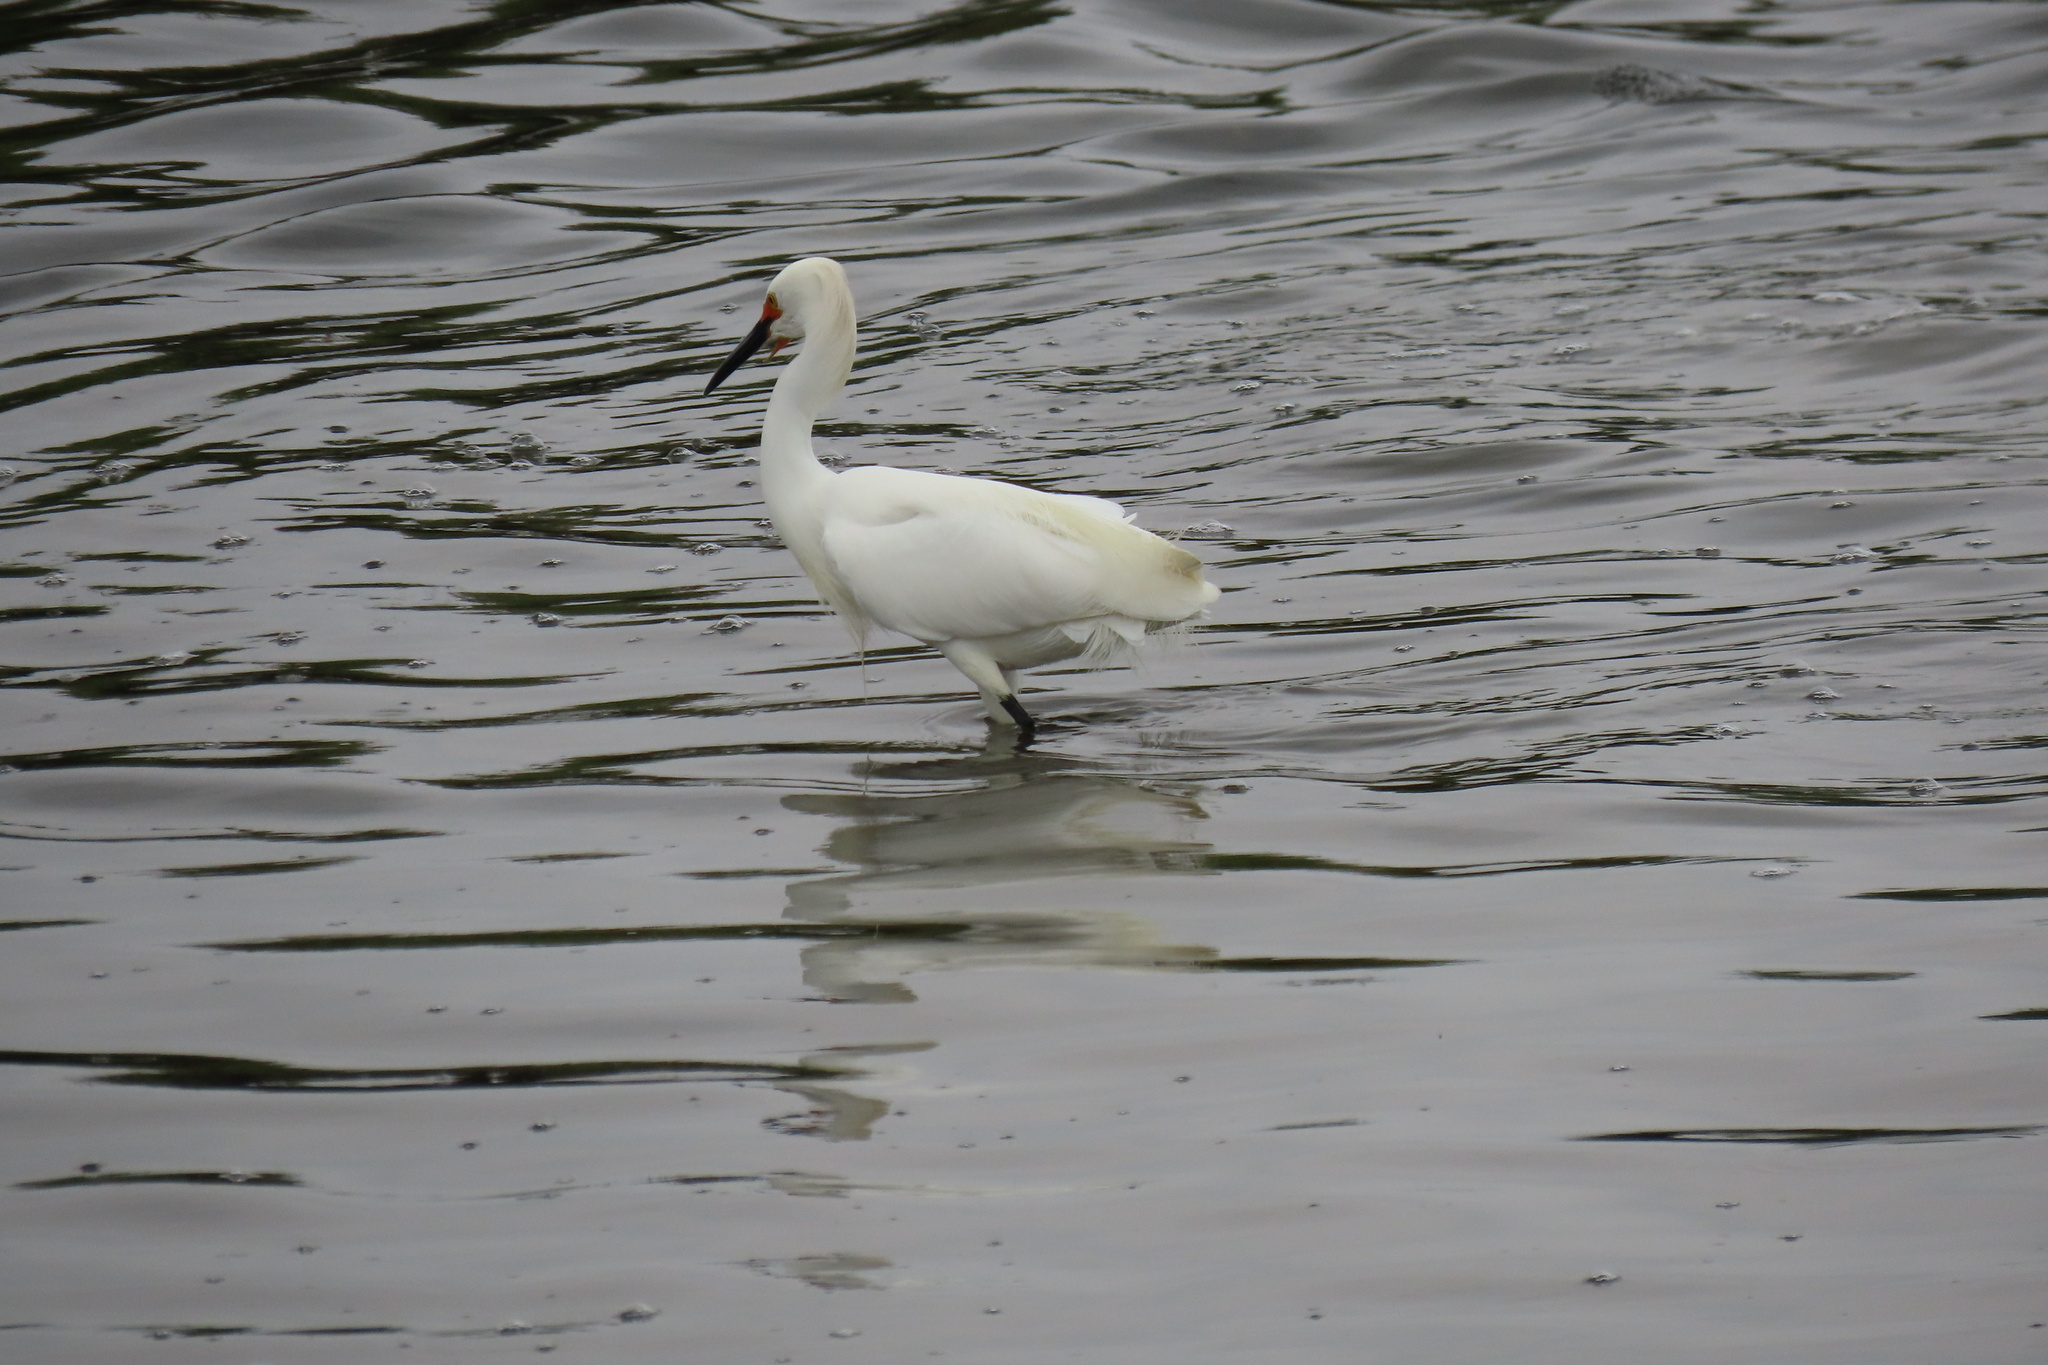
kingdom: Animalia
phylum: Chordata
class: Aves
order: Pelecaniformes
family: Ardeidae
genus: Egretta
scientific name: Egretta thula
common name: Snowy egret
